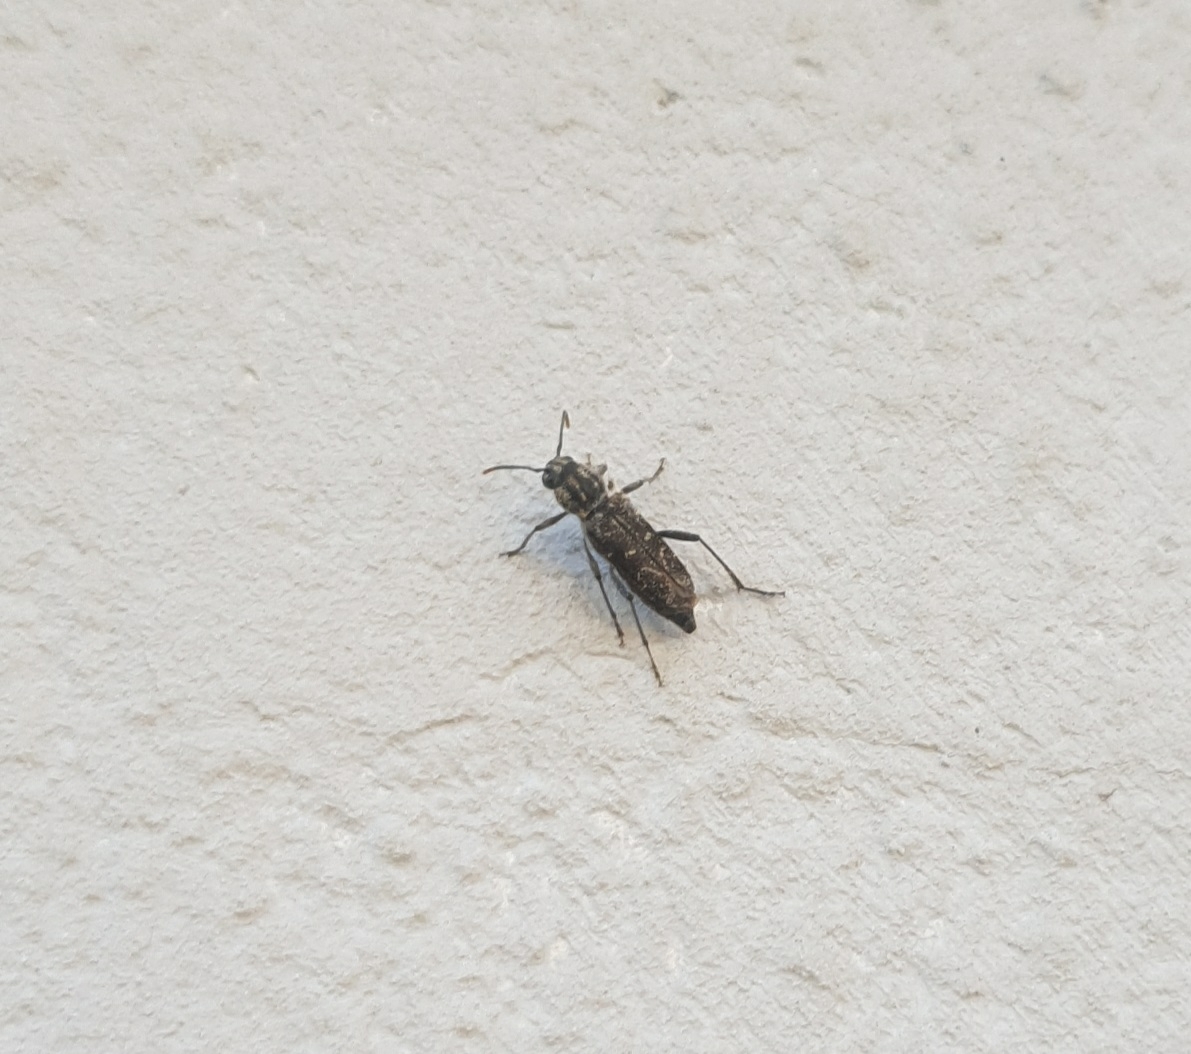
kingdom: Animalia
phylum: Arthropoda
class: Insecta
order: Coleoptera
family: Cerambycidae
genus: Xylotrechus
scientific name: Xylotrechus rusticus
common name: Grey tiger long-horned beetle
